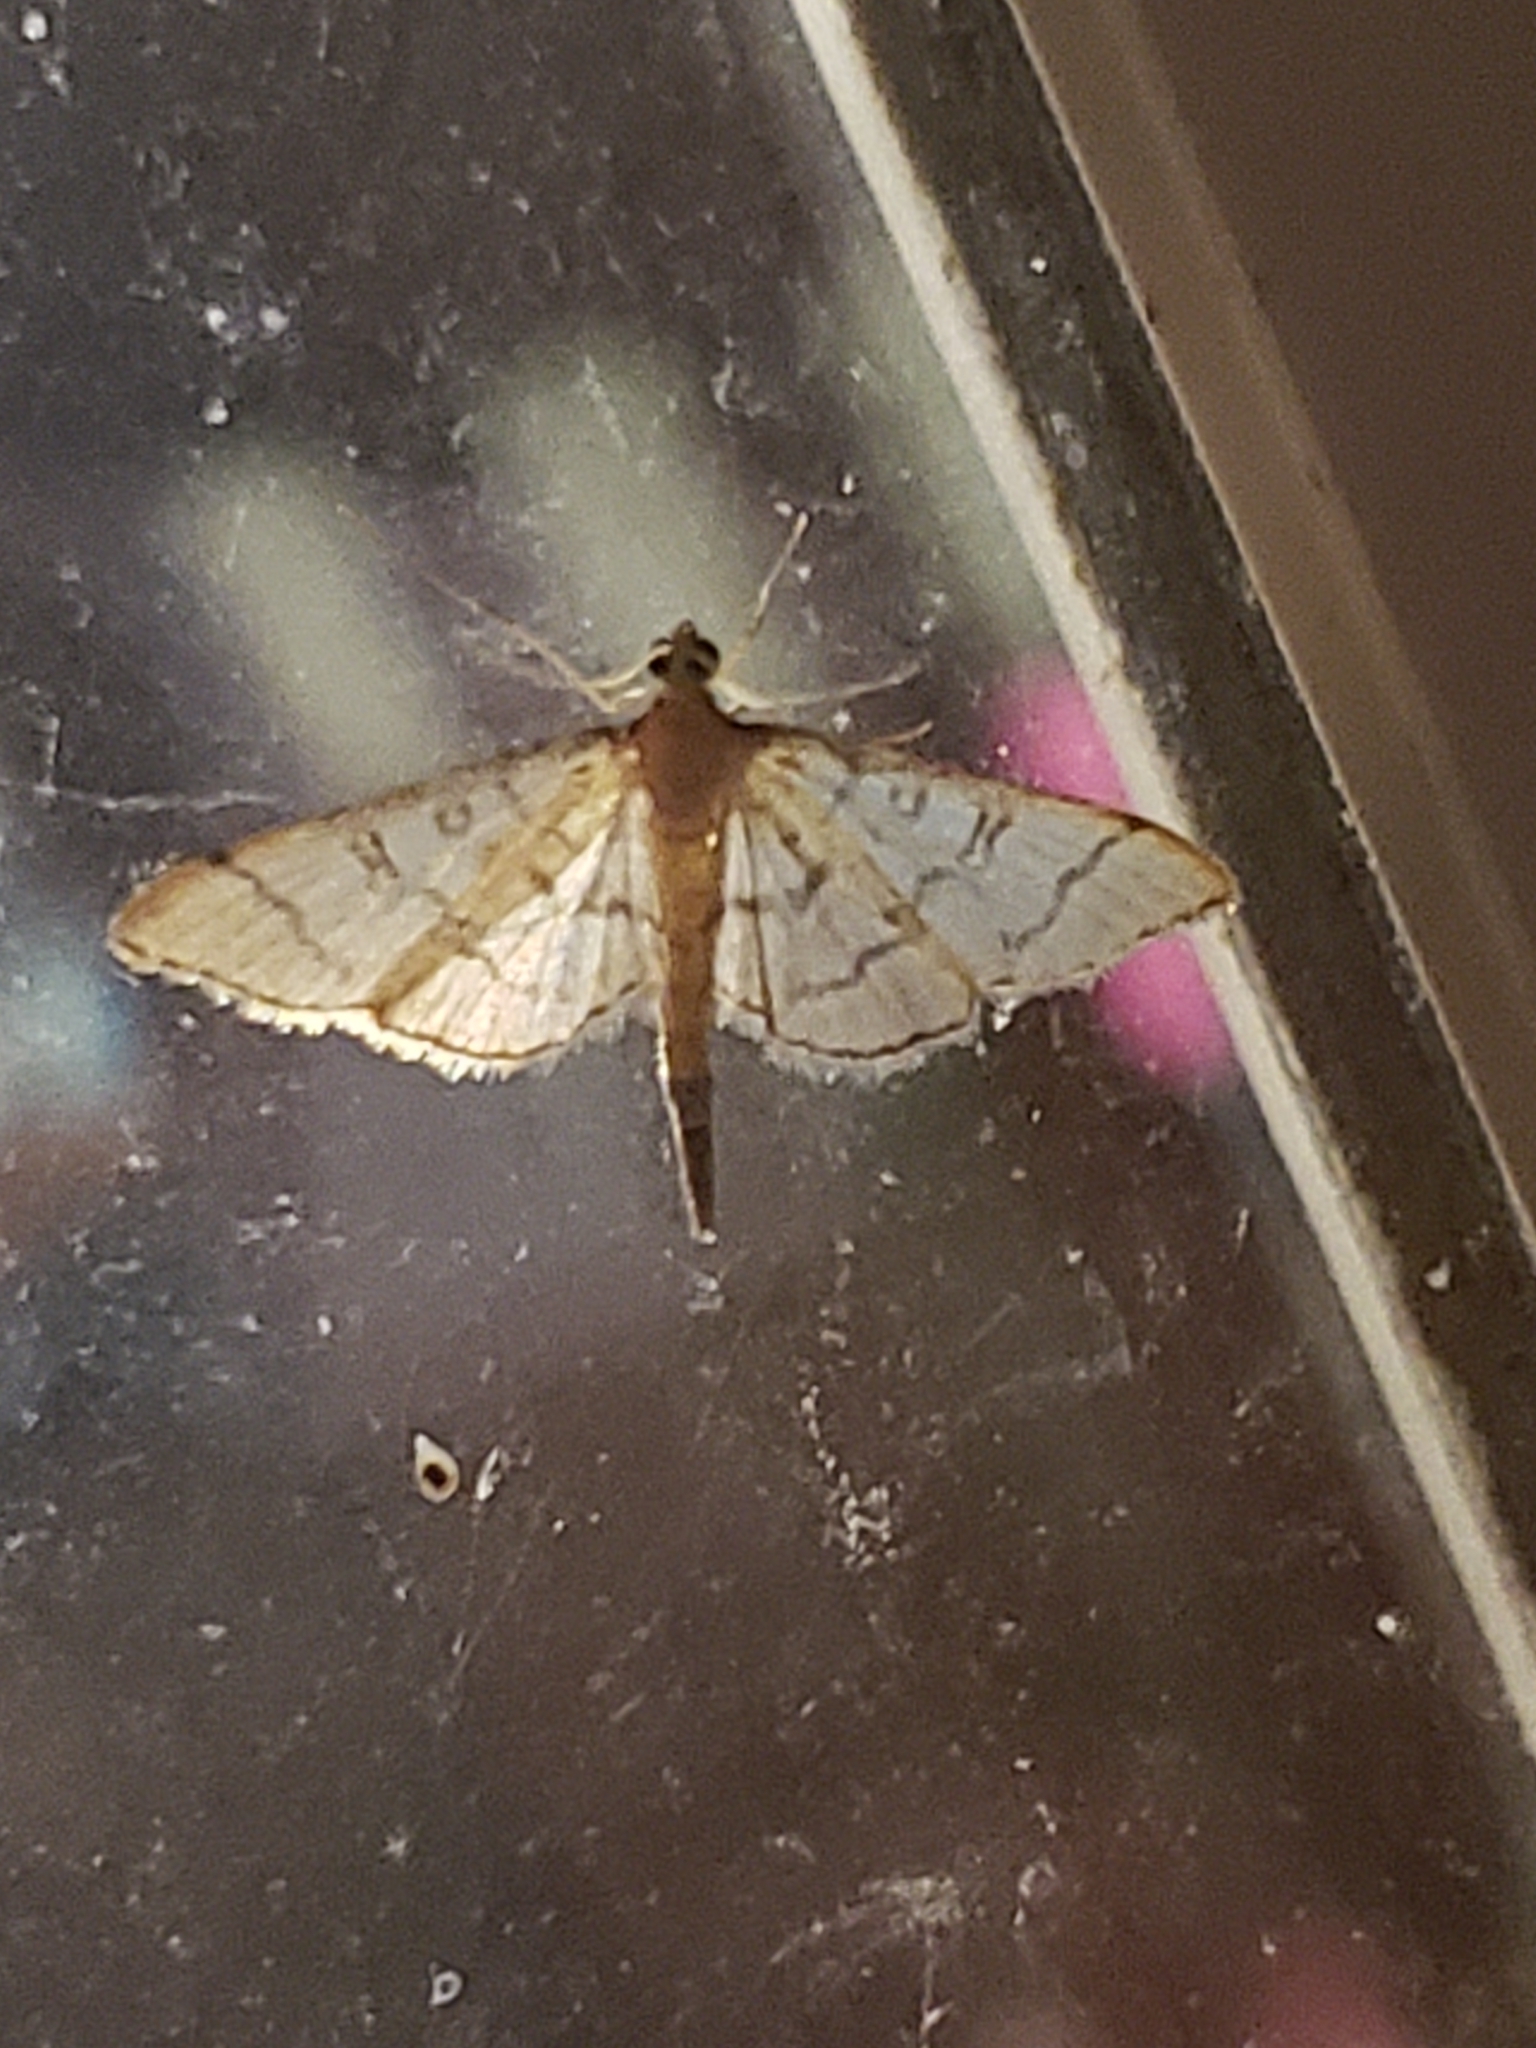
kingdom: Animalia
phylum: Arthropoda
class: Insecta
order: Lepidoptera
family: Crambidae
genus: Lamprosema
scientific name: Lamprosema Blepharomastix ranalis
